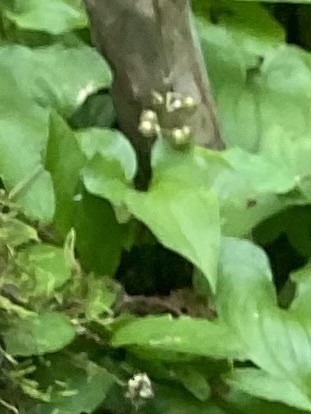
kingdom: Plantae
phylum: Tracheophyta
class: Liliopsida
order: Asparagales
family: Asparagaceae
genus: Maianthemum
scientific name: Maianthemum bifolium
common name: May lily
